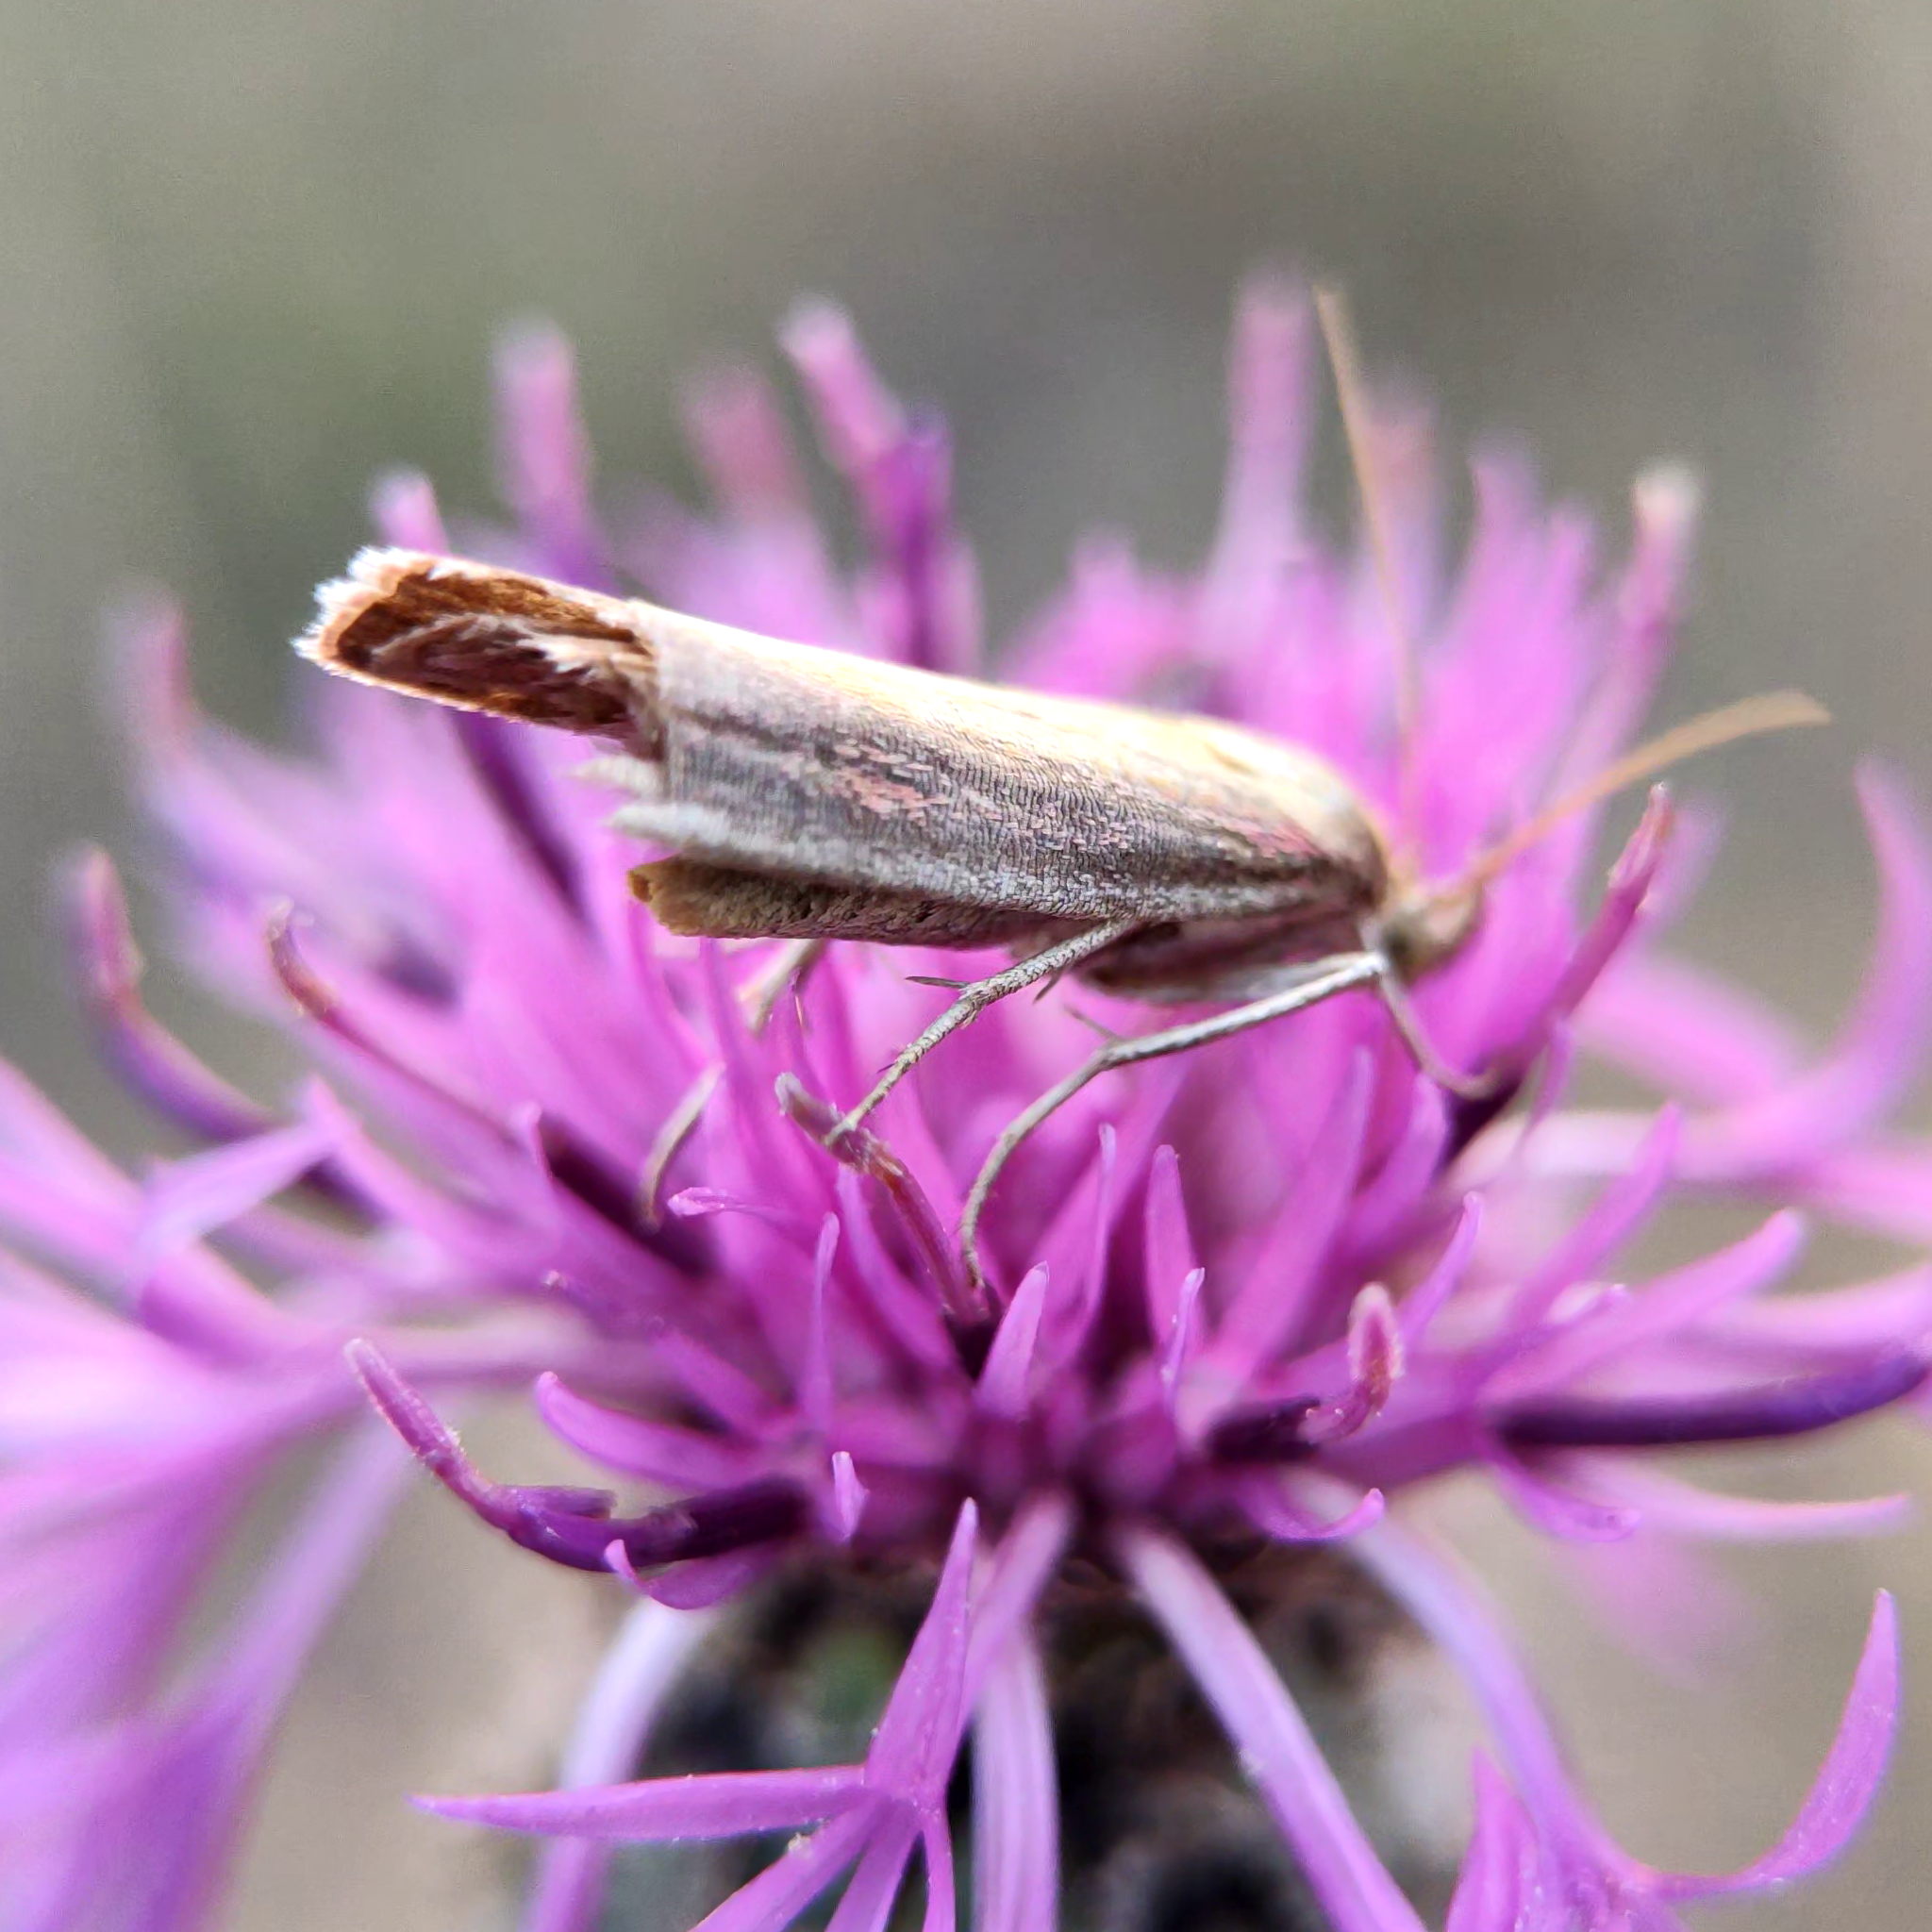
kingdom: Animalia
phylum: Arthropoda
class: Insecta
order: Lepidoptera
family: Pyralidae
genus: Oncocera
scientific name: Oncocera semirubella
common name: Rosy-striped knot-horn
